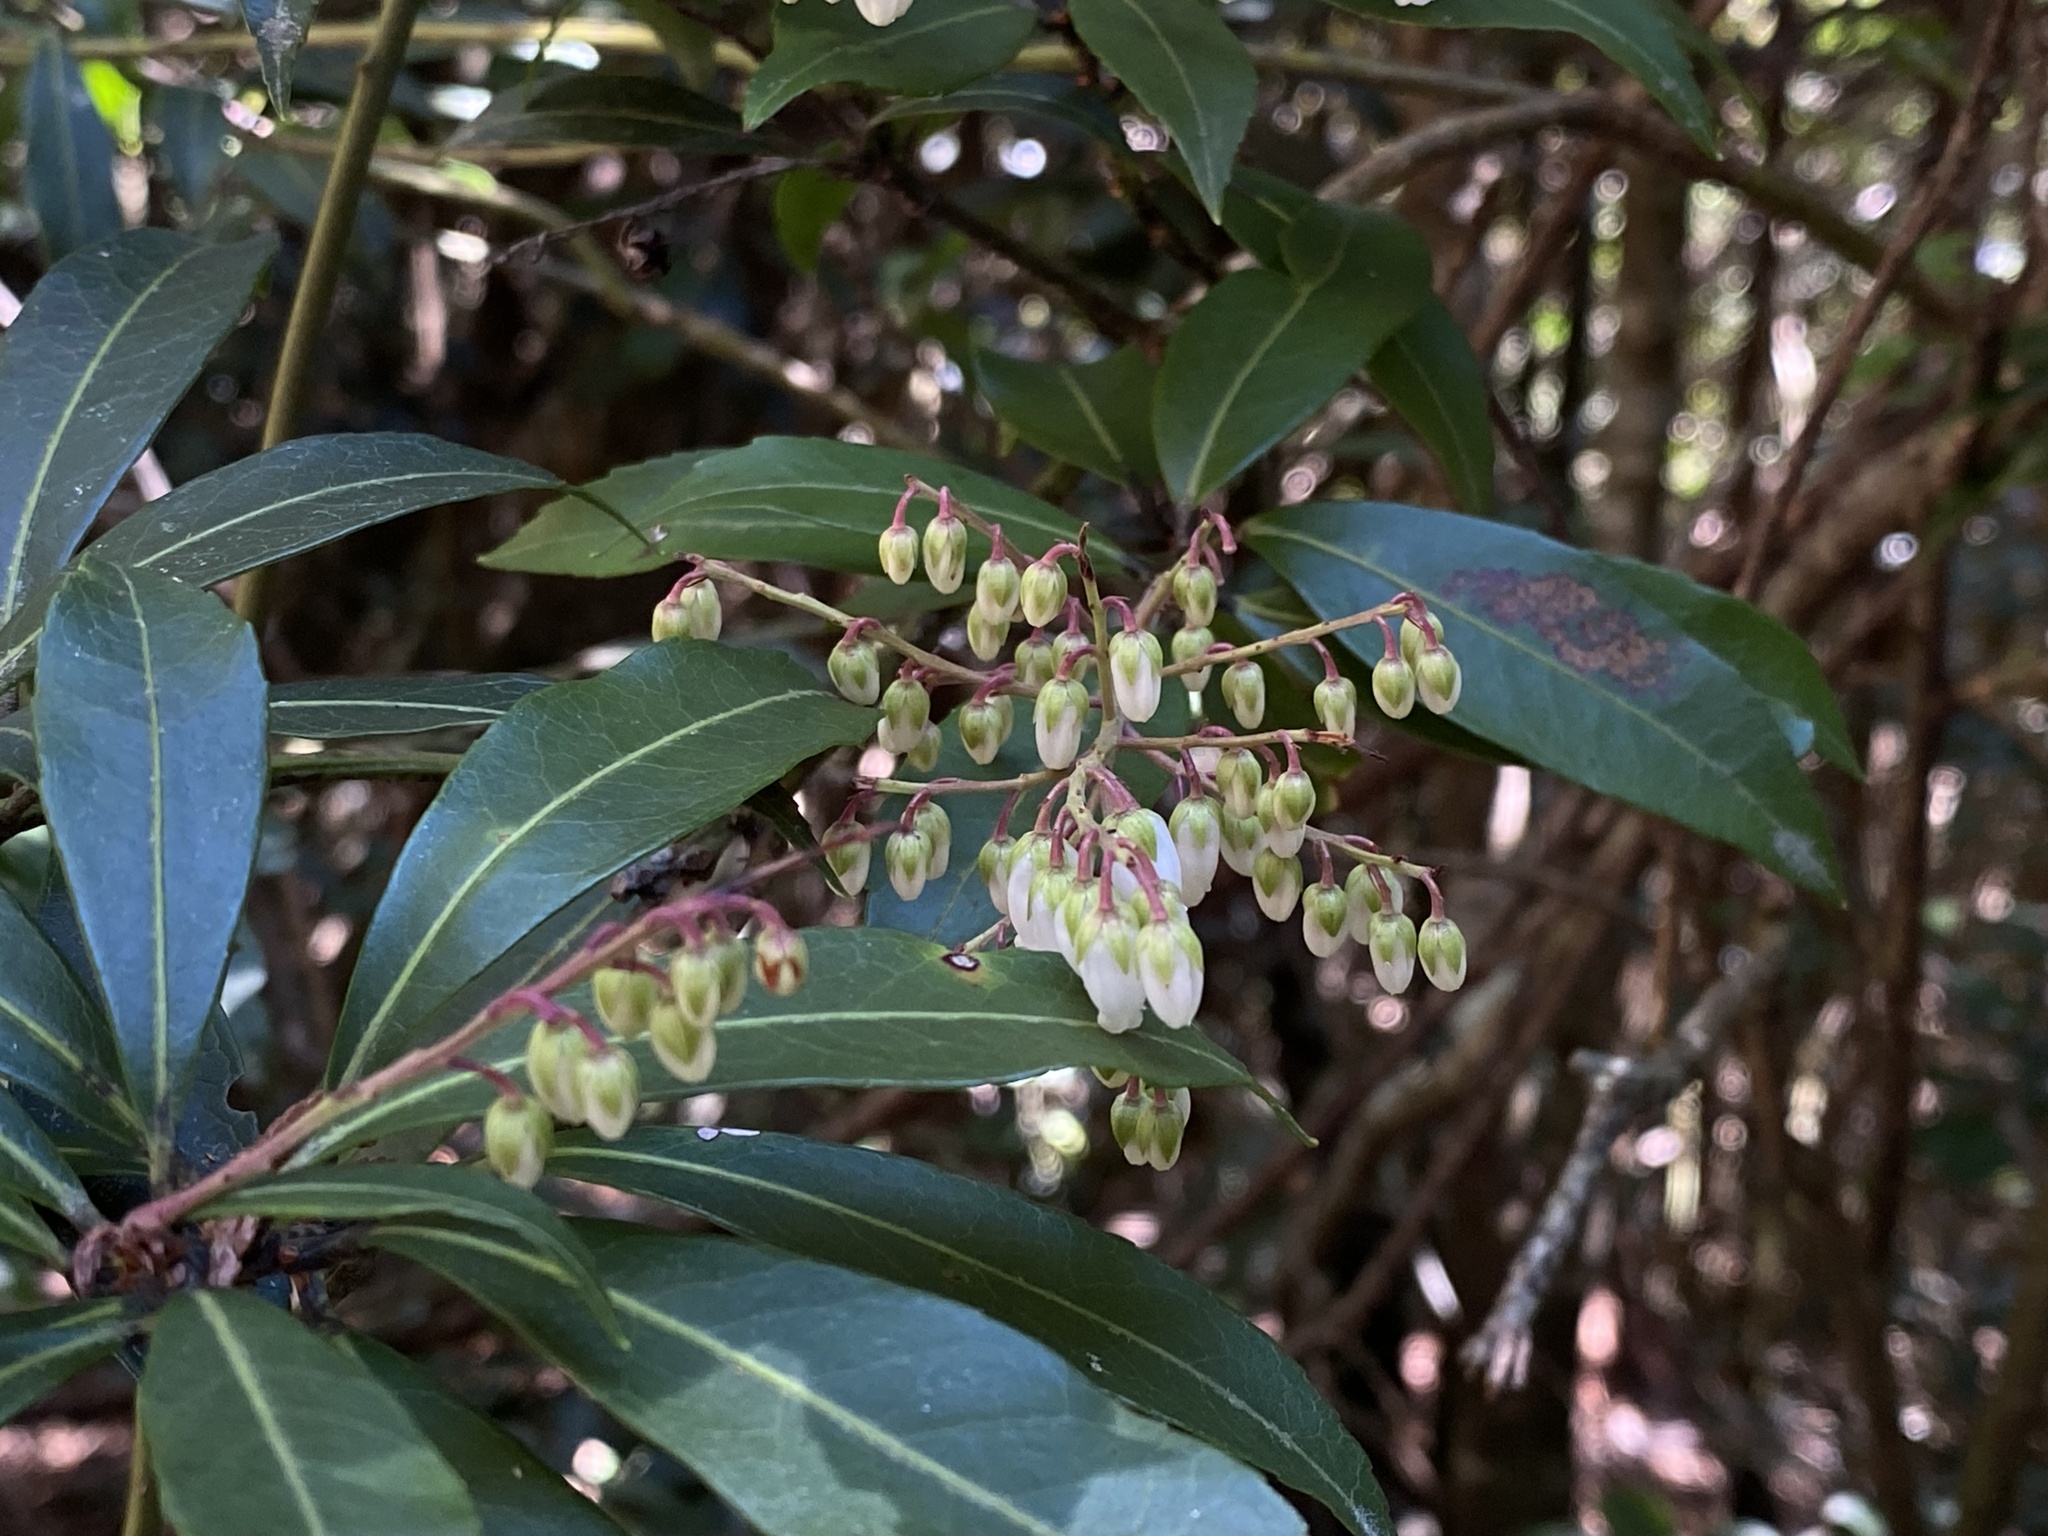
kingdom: Plantae
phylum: Tracheophyta
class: Magnoliopsida
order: Ericales
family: Ericaceae
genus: Pieris
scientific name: Pieris japonica
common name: Japanese pieris
